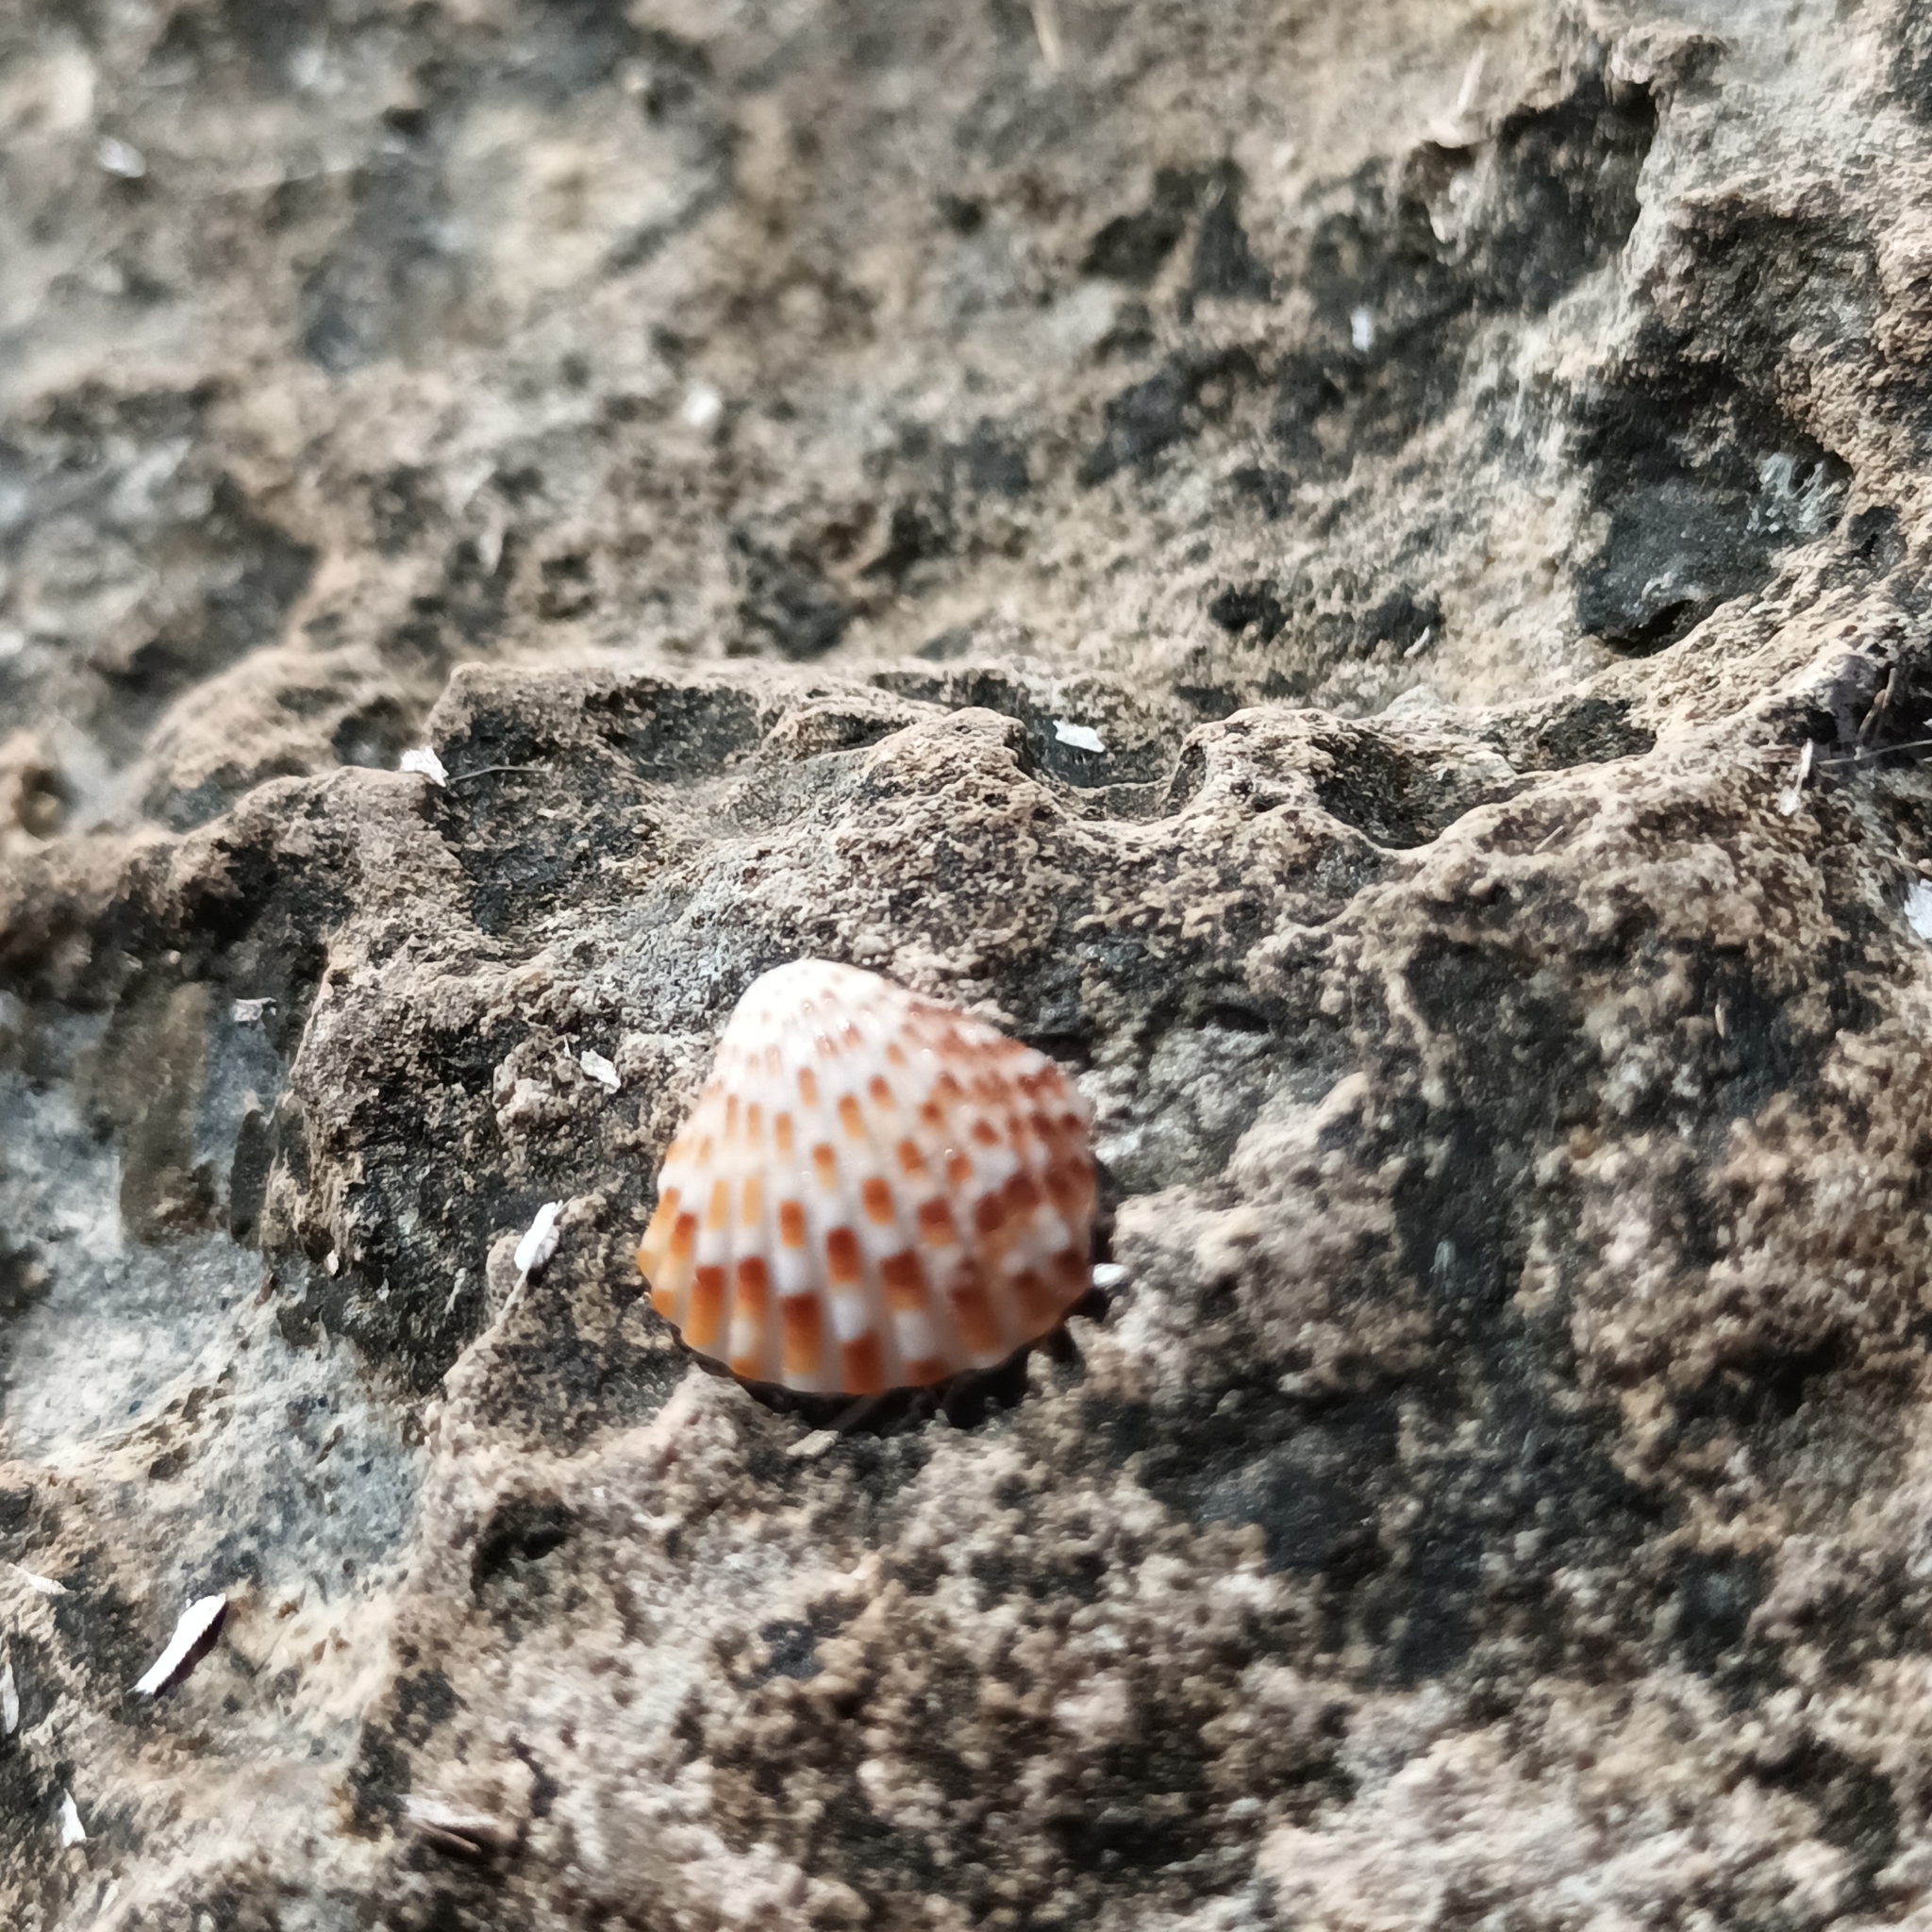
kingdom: Animalia
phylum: Mollusca
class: Bivalvia
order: Carditida
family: Carditidae
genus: Cardites
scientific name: Cardites antiquatus
